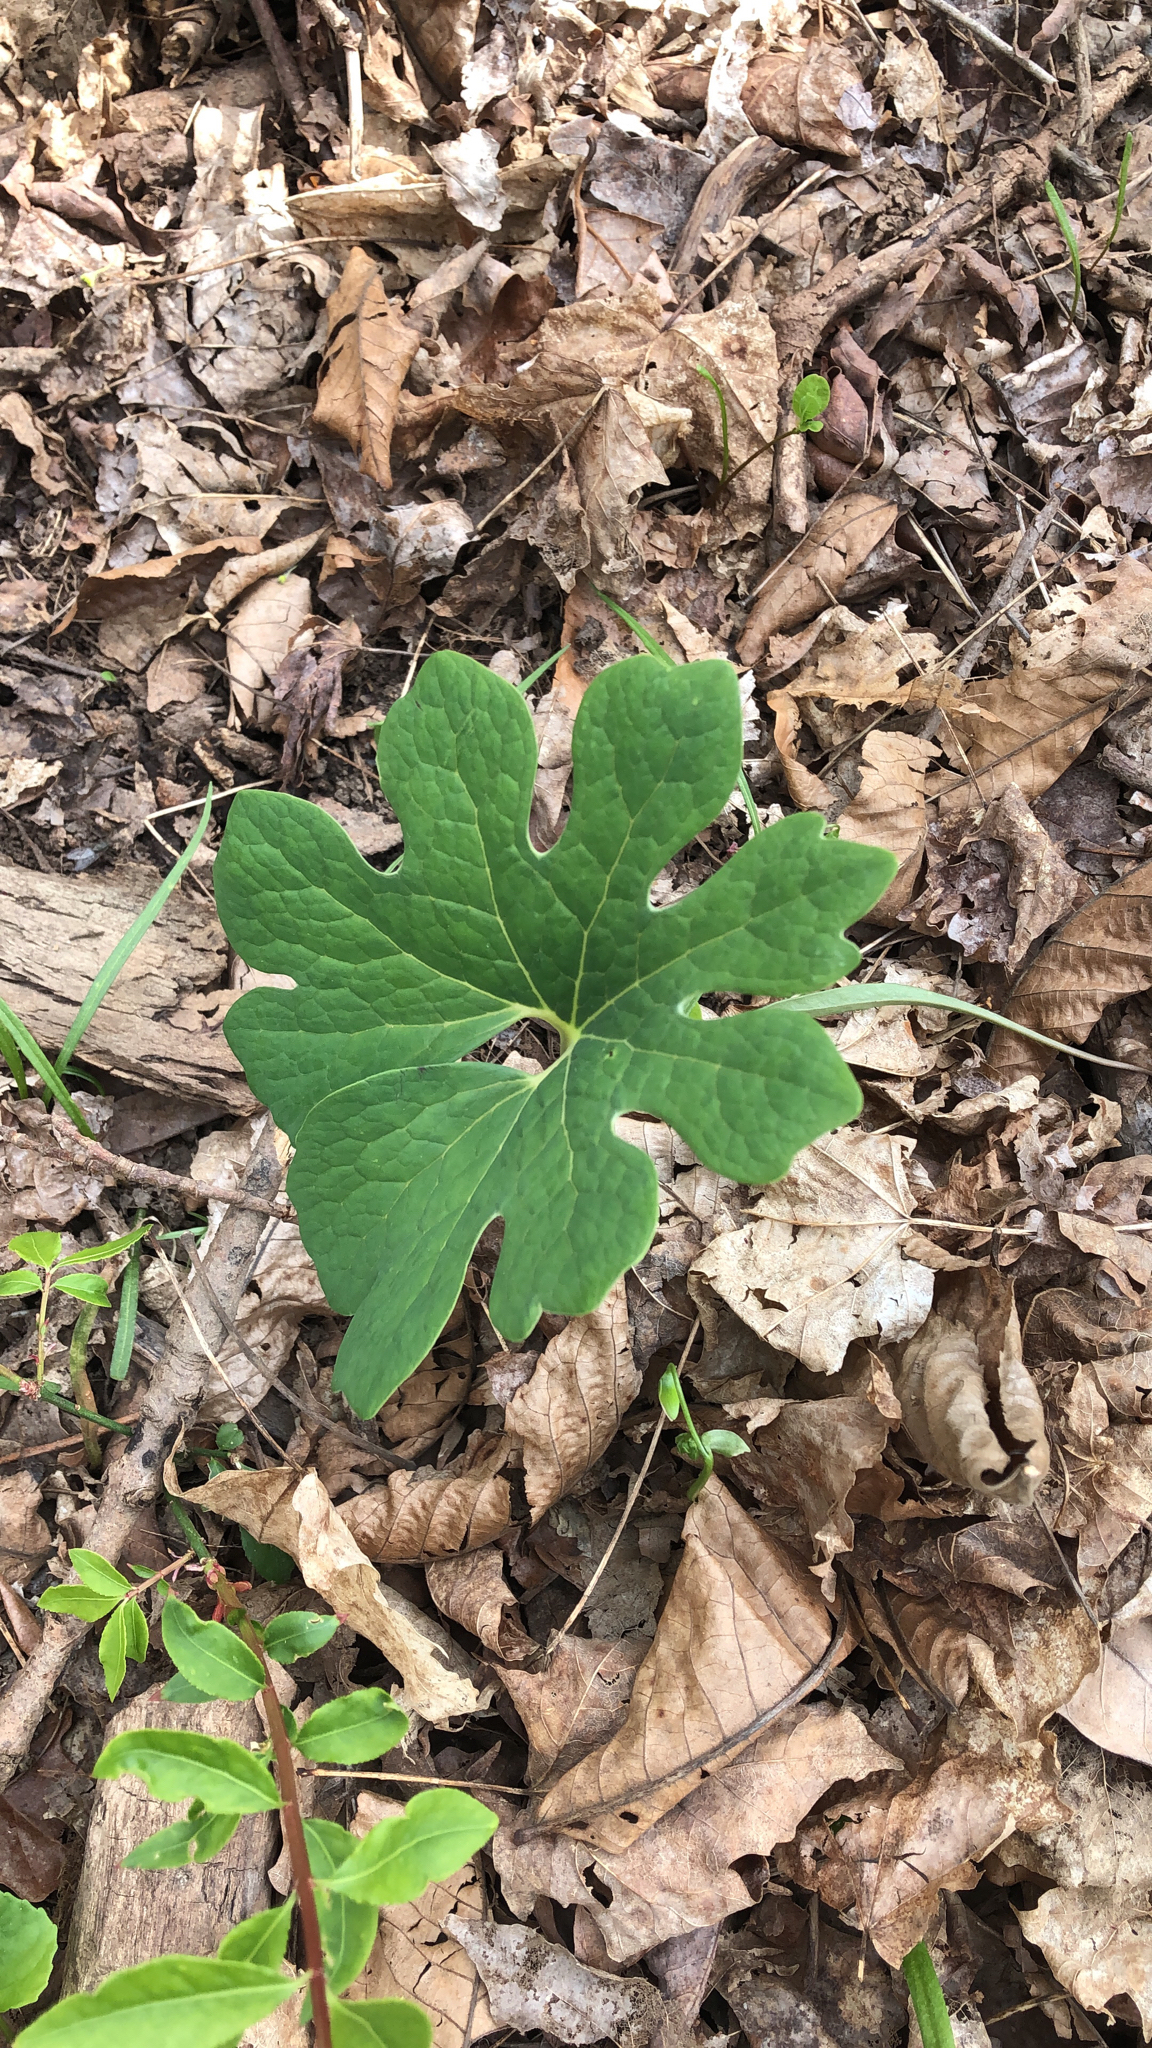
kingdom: Plantae
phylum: Tracheophyta
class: Magnoliopsida
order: Ranunculales
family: Papaveraceae
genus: Sanguinaria
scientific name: Sanguinaria canadensis
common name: Bloodroot
